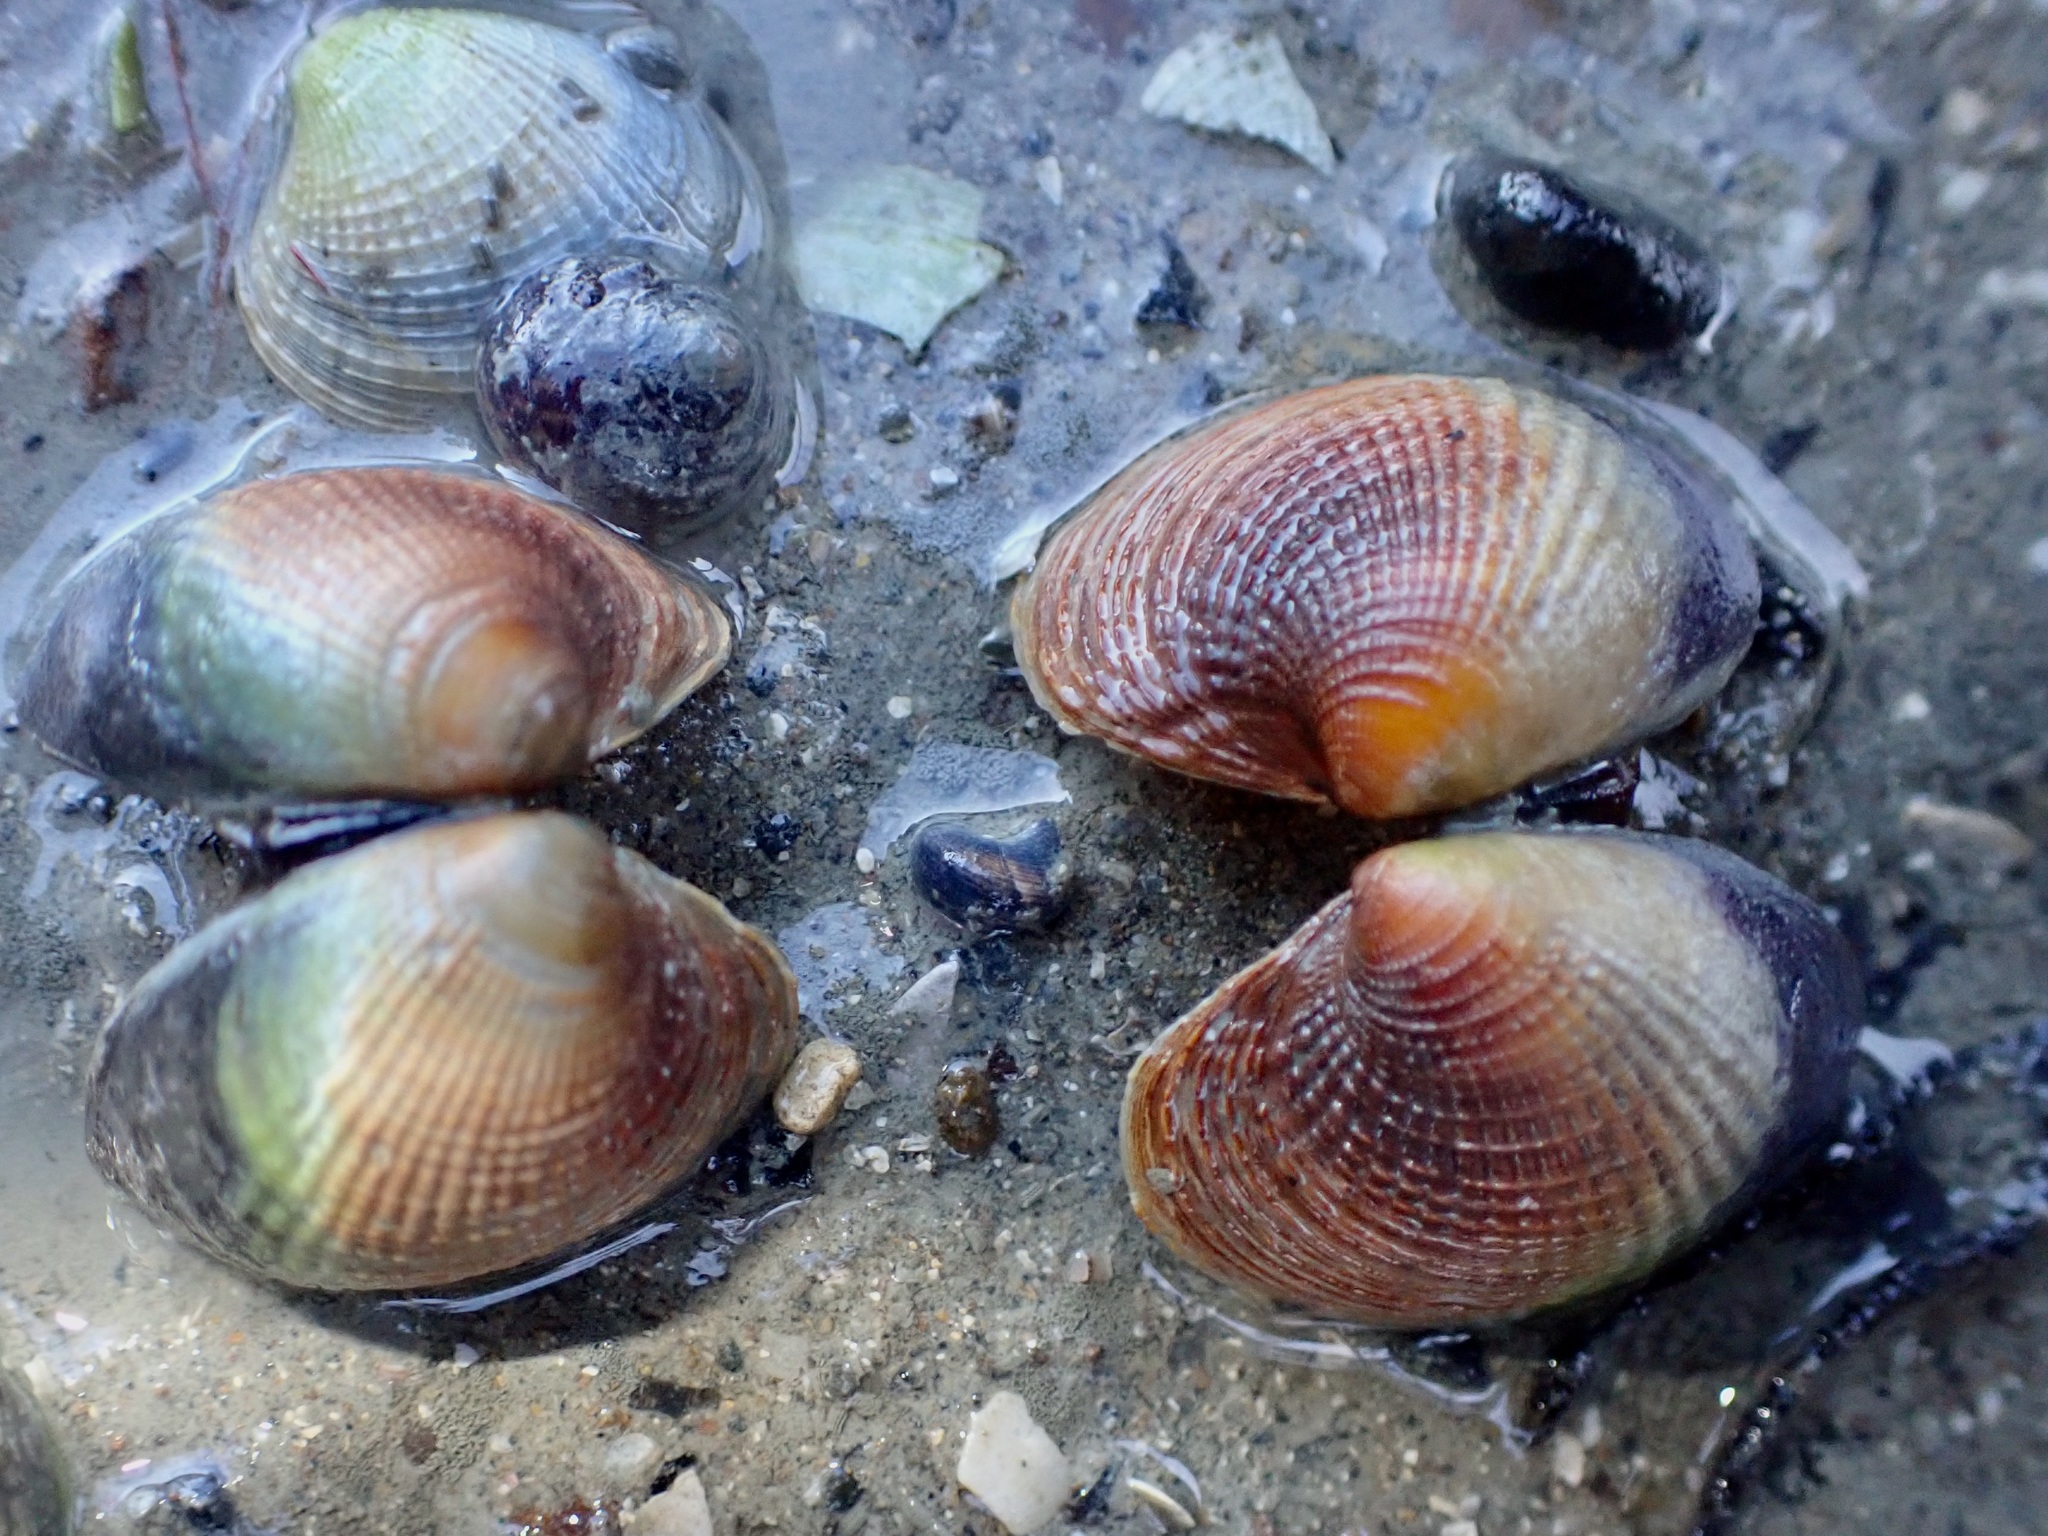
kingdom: Animalia
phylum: Mollusca
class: Bivalvia
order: Venerida
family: Veneridae
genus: Austrovenus
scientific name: Austrovenus stutchburyi
